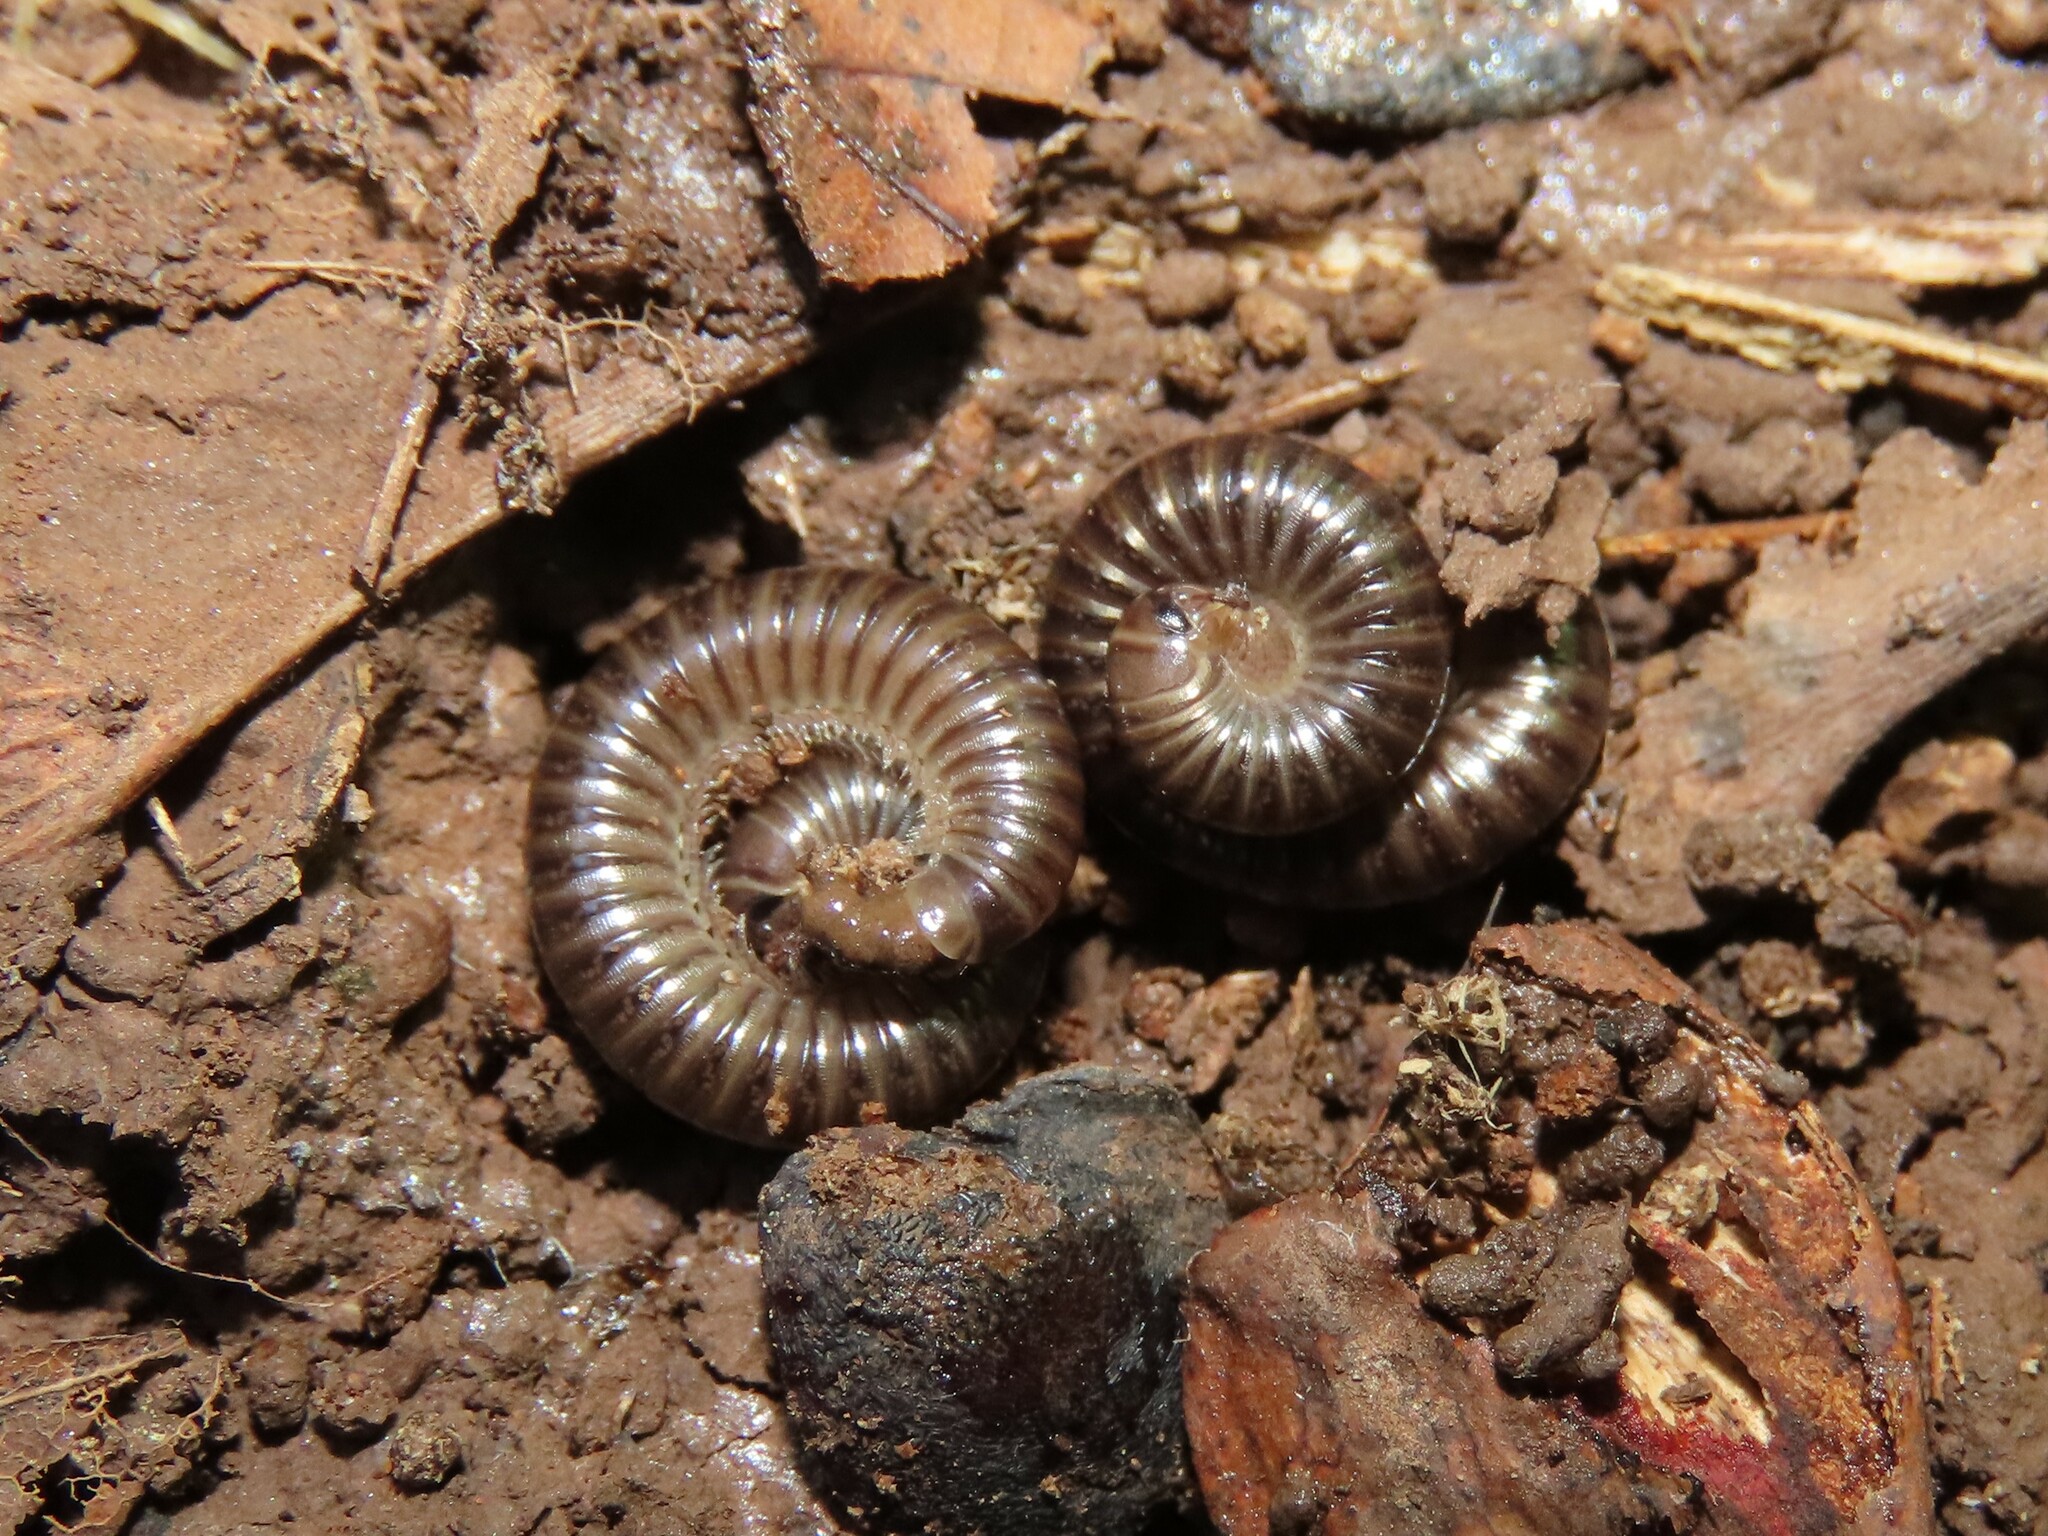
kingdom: Animalia
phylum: Arthropoda
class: Diplopoda
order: Julida
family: Julidae
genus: Cylindroiulus
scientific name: Cylindroiulus caeruleocinctus
